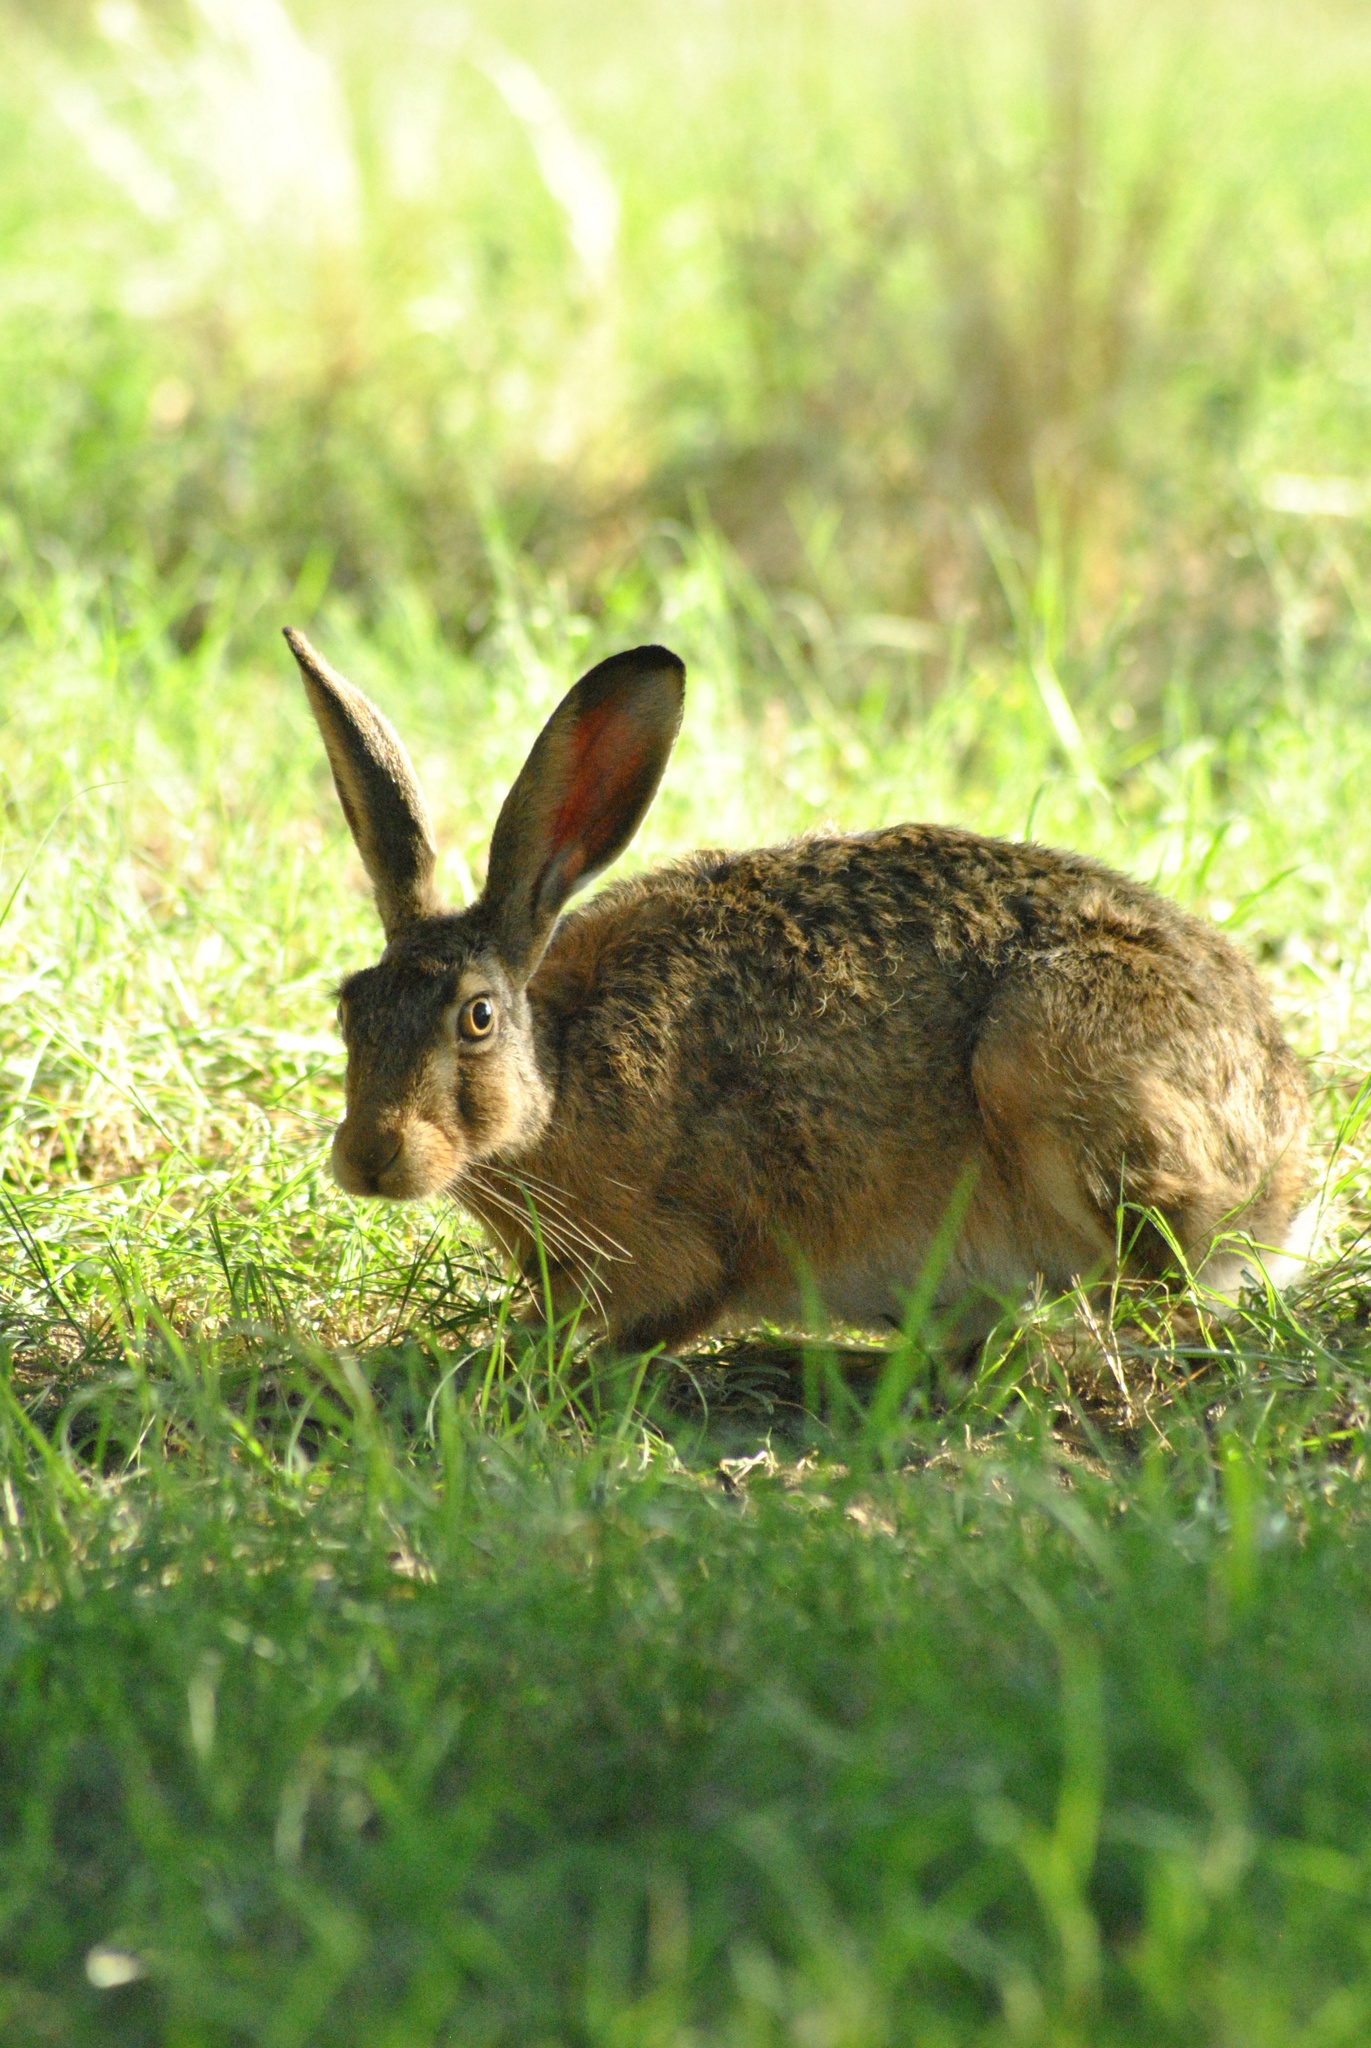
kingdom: Animalia
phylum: Chordata
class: Mammalia
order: Lagomorpha
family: Leporidae
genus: Lepus
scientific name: Lepus europaeus
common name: European hare
